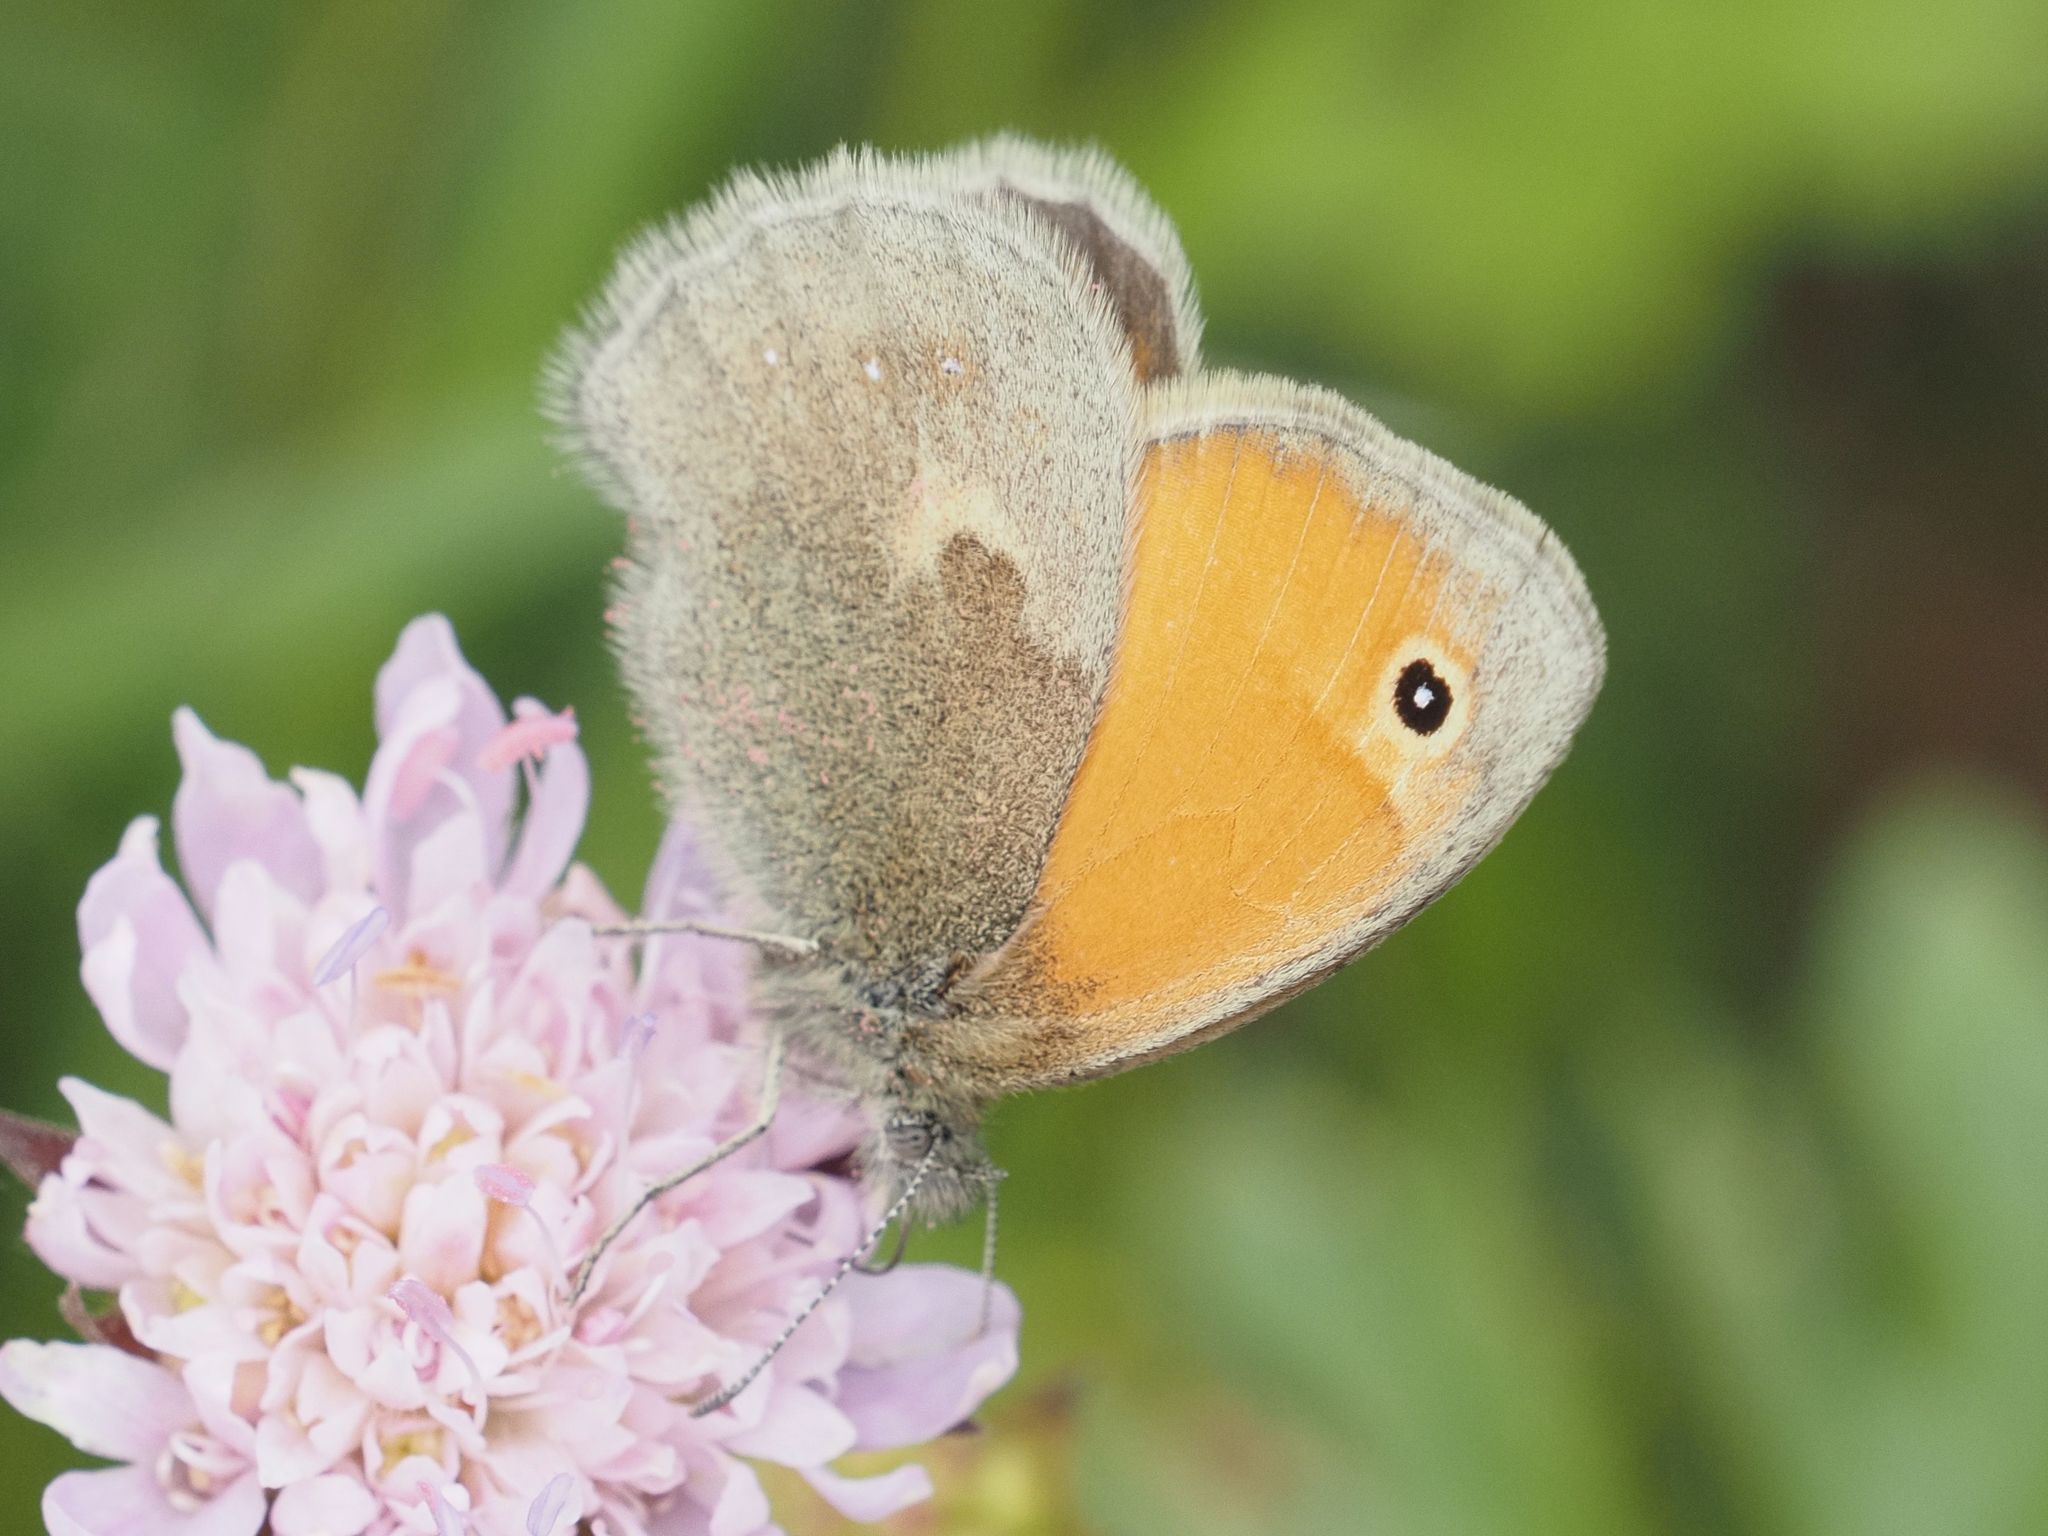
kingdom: Animalia
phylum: Arthropoda
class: Insecta
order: Lepidoptera
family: Nymphalidae
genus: Coenonympha
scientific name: Coenonympha pamphilus
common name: Small heath
